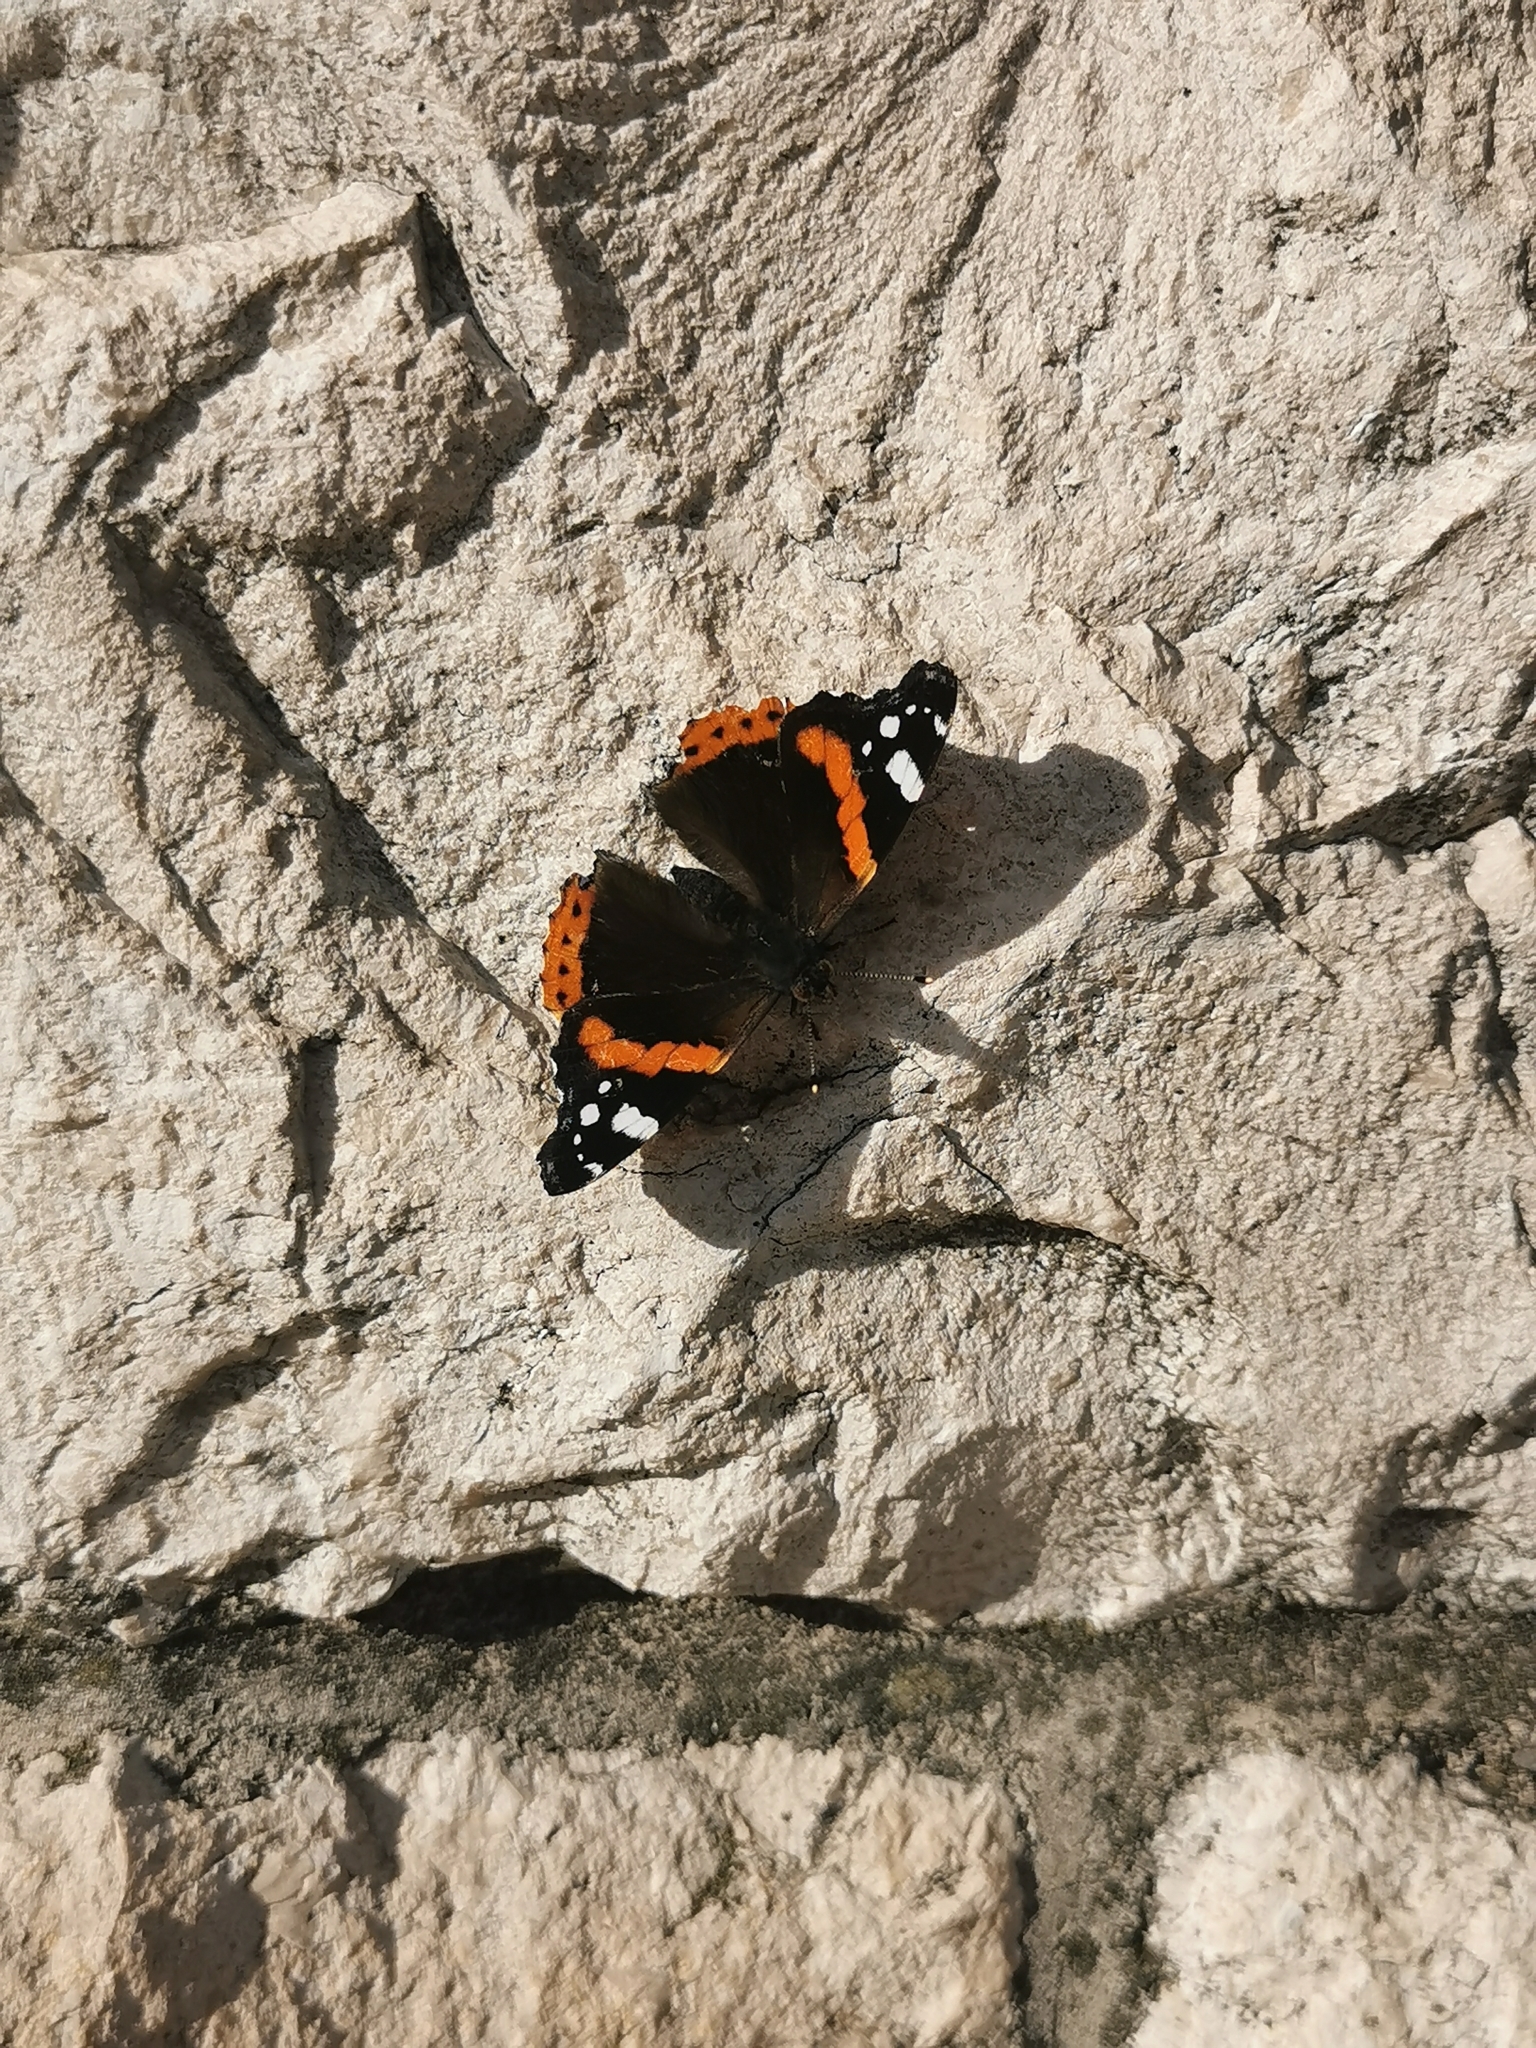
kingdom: Animalia
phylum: Arthropoda
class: Insecta
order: Lepidoptera
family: Nymphalidae
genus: Vanessa
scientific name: Vanessa atalanta
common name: Red admiral
